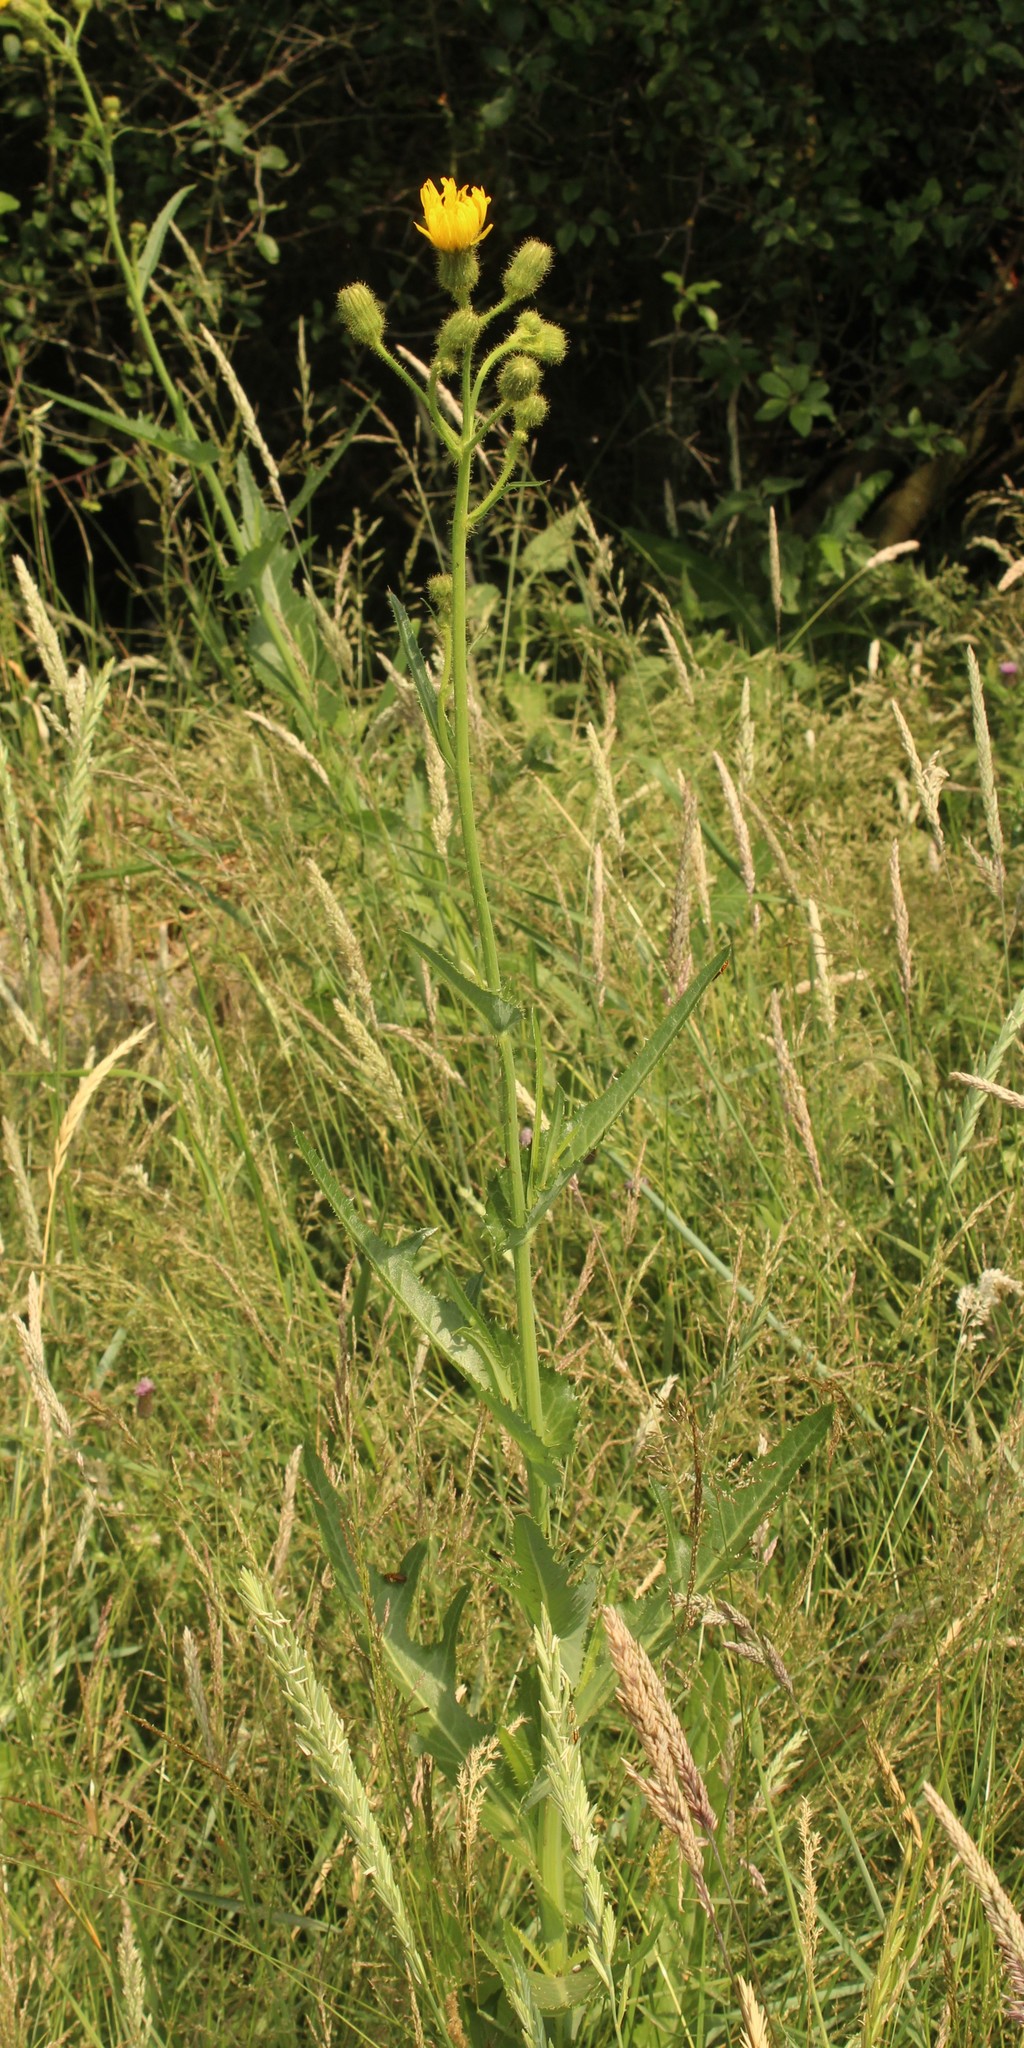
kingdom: Plantae
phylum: Tracheophyta
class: Magnoliopsida
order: Asterales
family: Asteraceae
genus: Sonchus
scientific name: Sonchus arvensis
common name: Perennial sow-thistle
